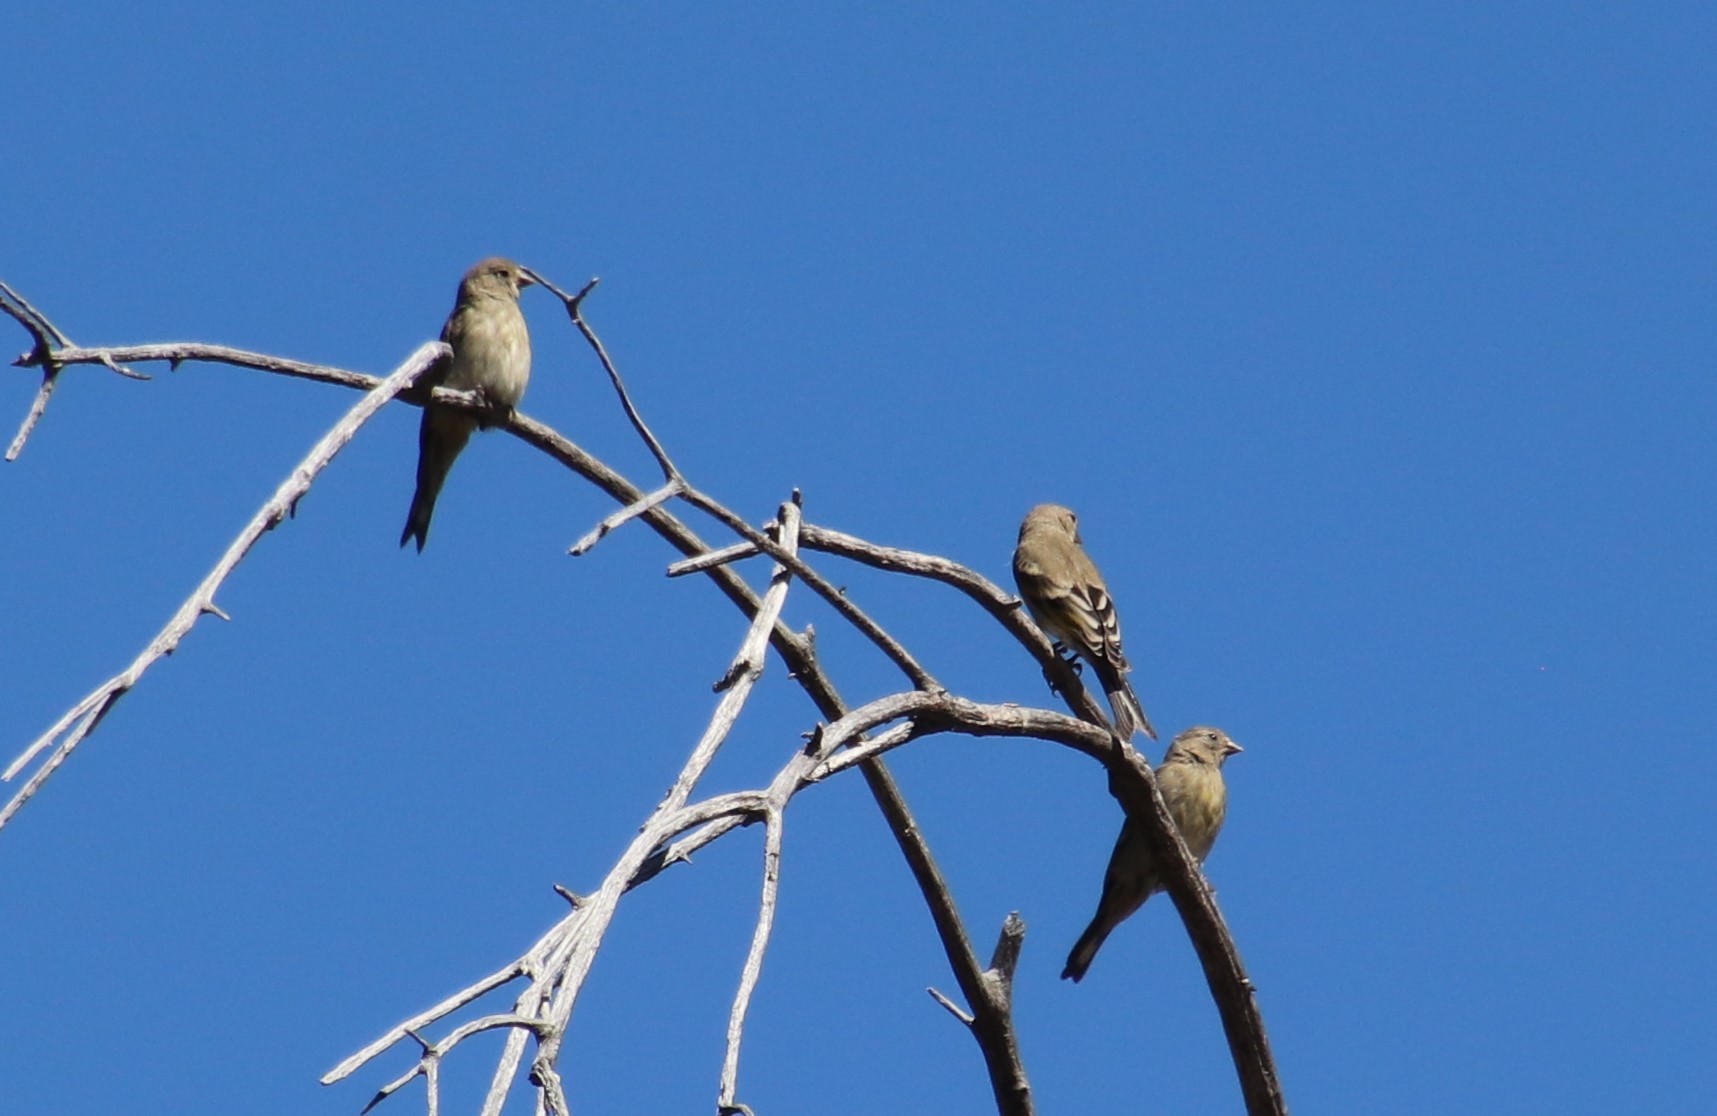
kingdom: Animalia
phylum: Chordata
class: Aves
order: Passeriformes
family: Fringillidae
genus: Spinus
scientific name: Spinus lawrencei
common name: Lawrence's goldfinch
